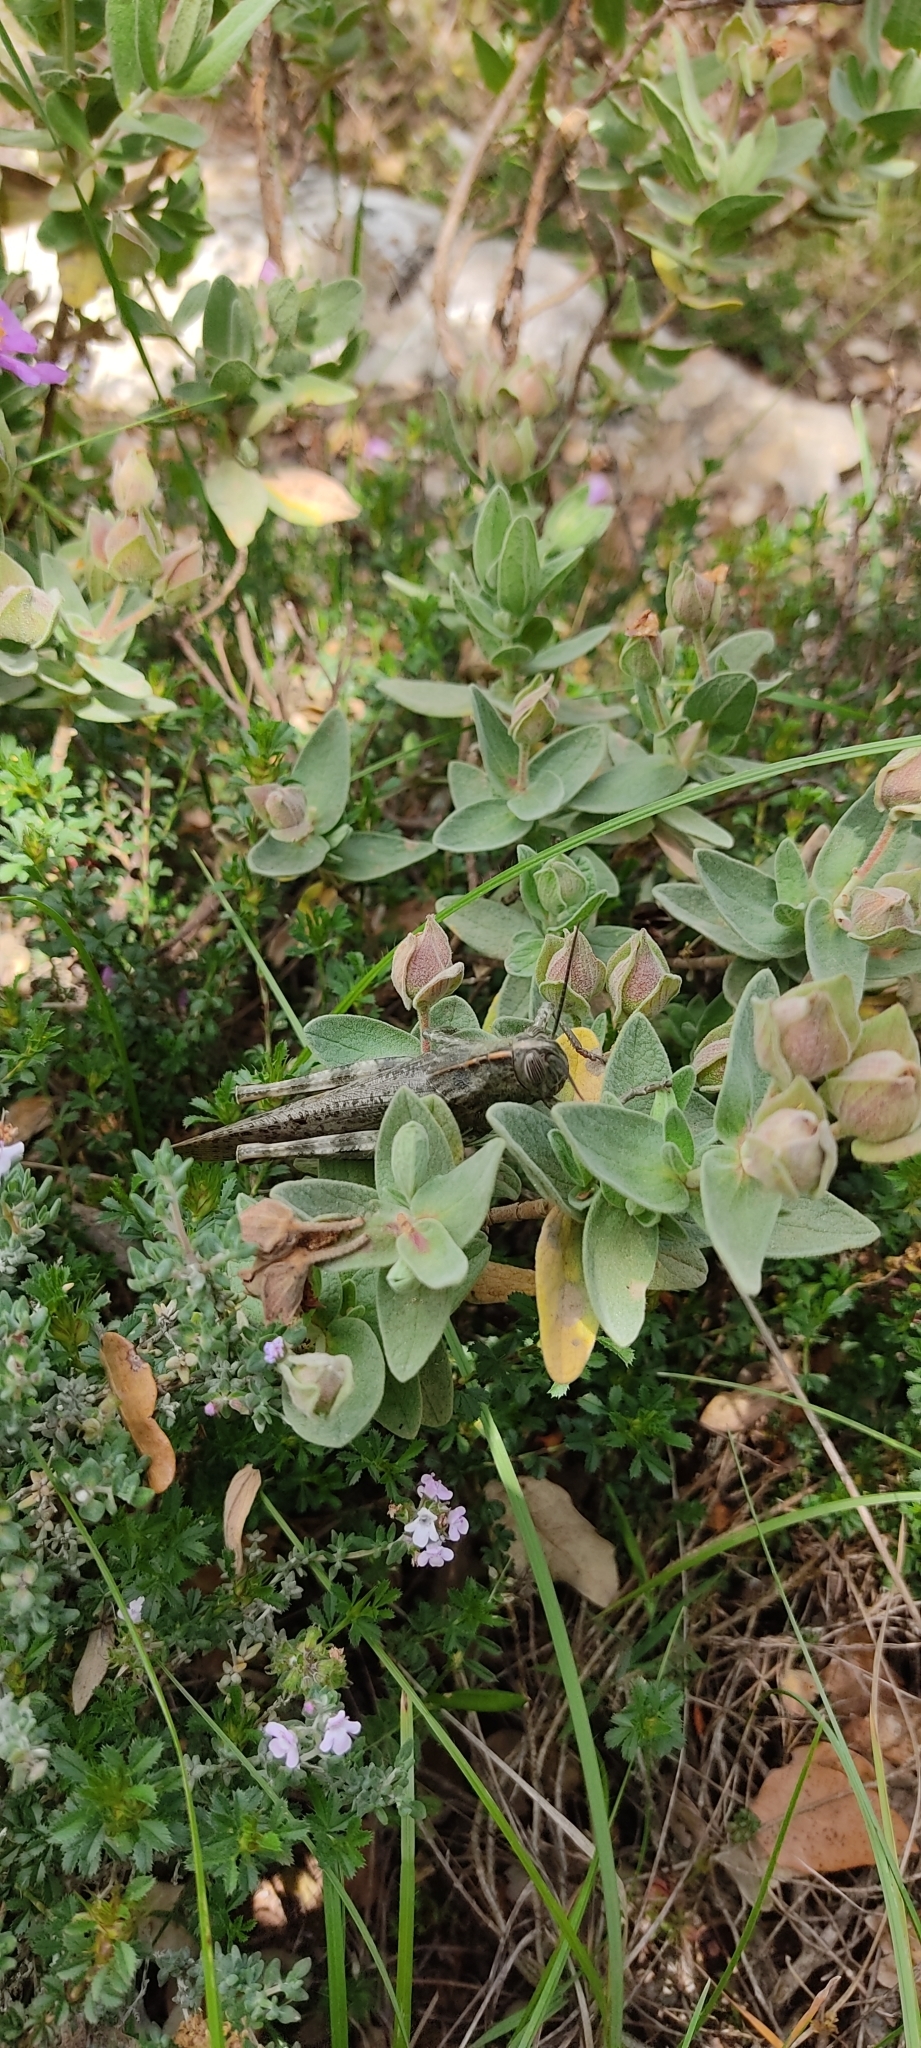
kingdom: Animalia
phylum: Arthropoda
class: Insecta
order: Orthoptera
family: Acrididae
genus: Anacridium
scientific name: Anacridium aegyptium
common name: Egyptian grasshopper
